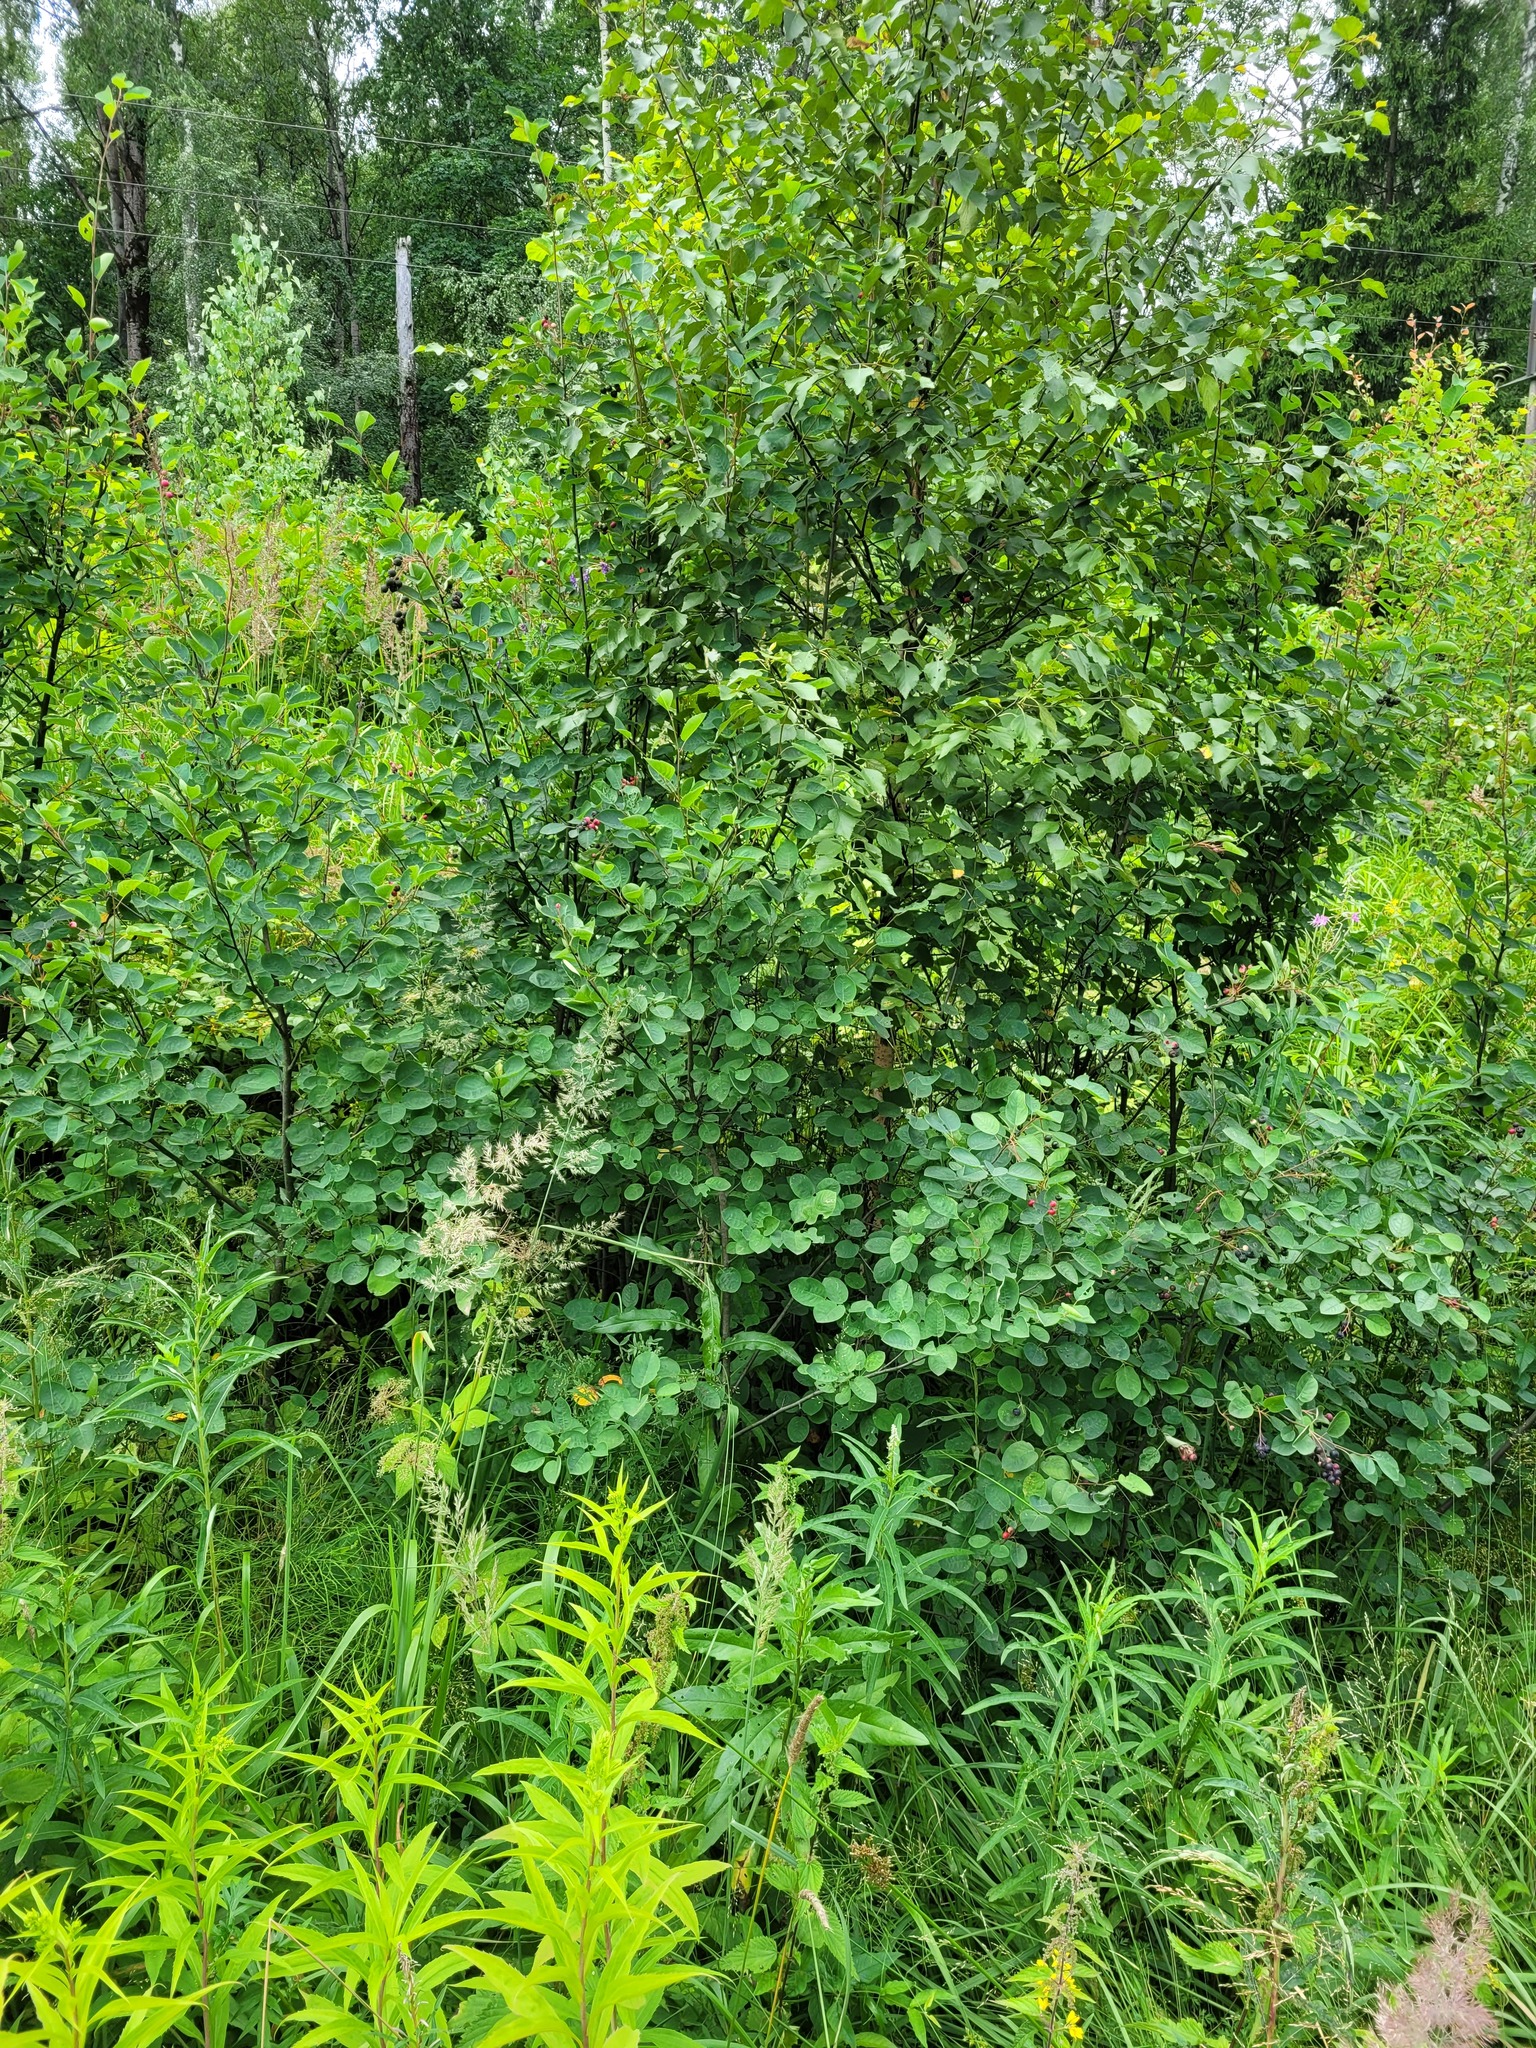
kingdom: Plantae
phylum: Tracheophyta
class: Magnoliopsida
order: Rosales
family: Rosaceae
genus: Amelanchier
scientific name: Amelanchier
